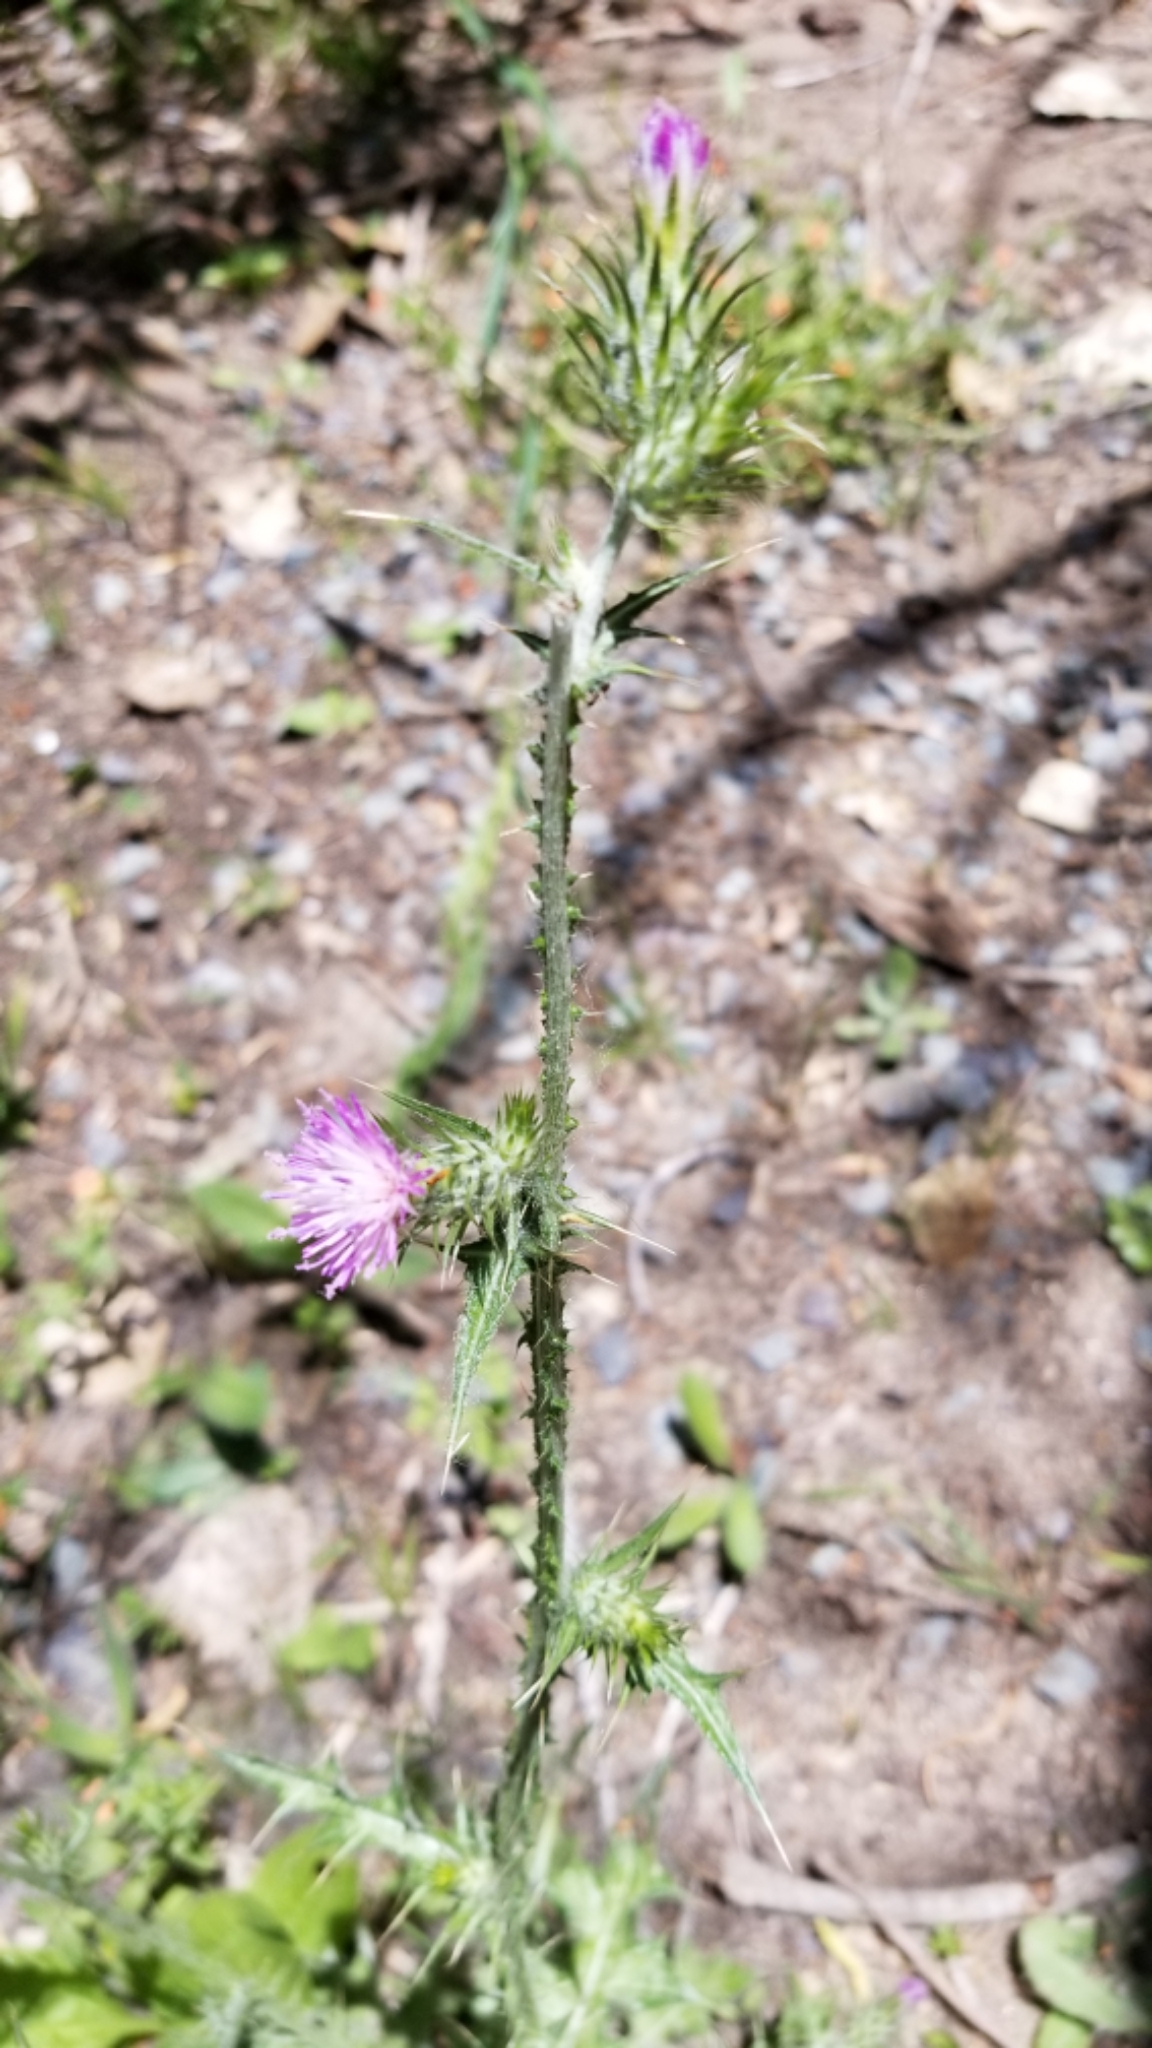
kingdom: Plantae
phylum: Tracheophyta
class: Magnoliopsida
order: Asterales
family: Asteraceae
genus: Carduus
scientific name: Carduus pycnocephalus
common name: Plymouth thistle
